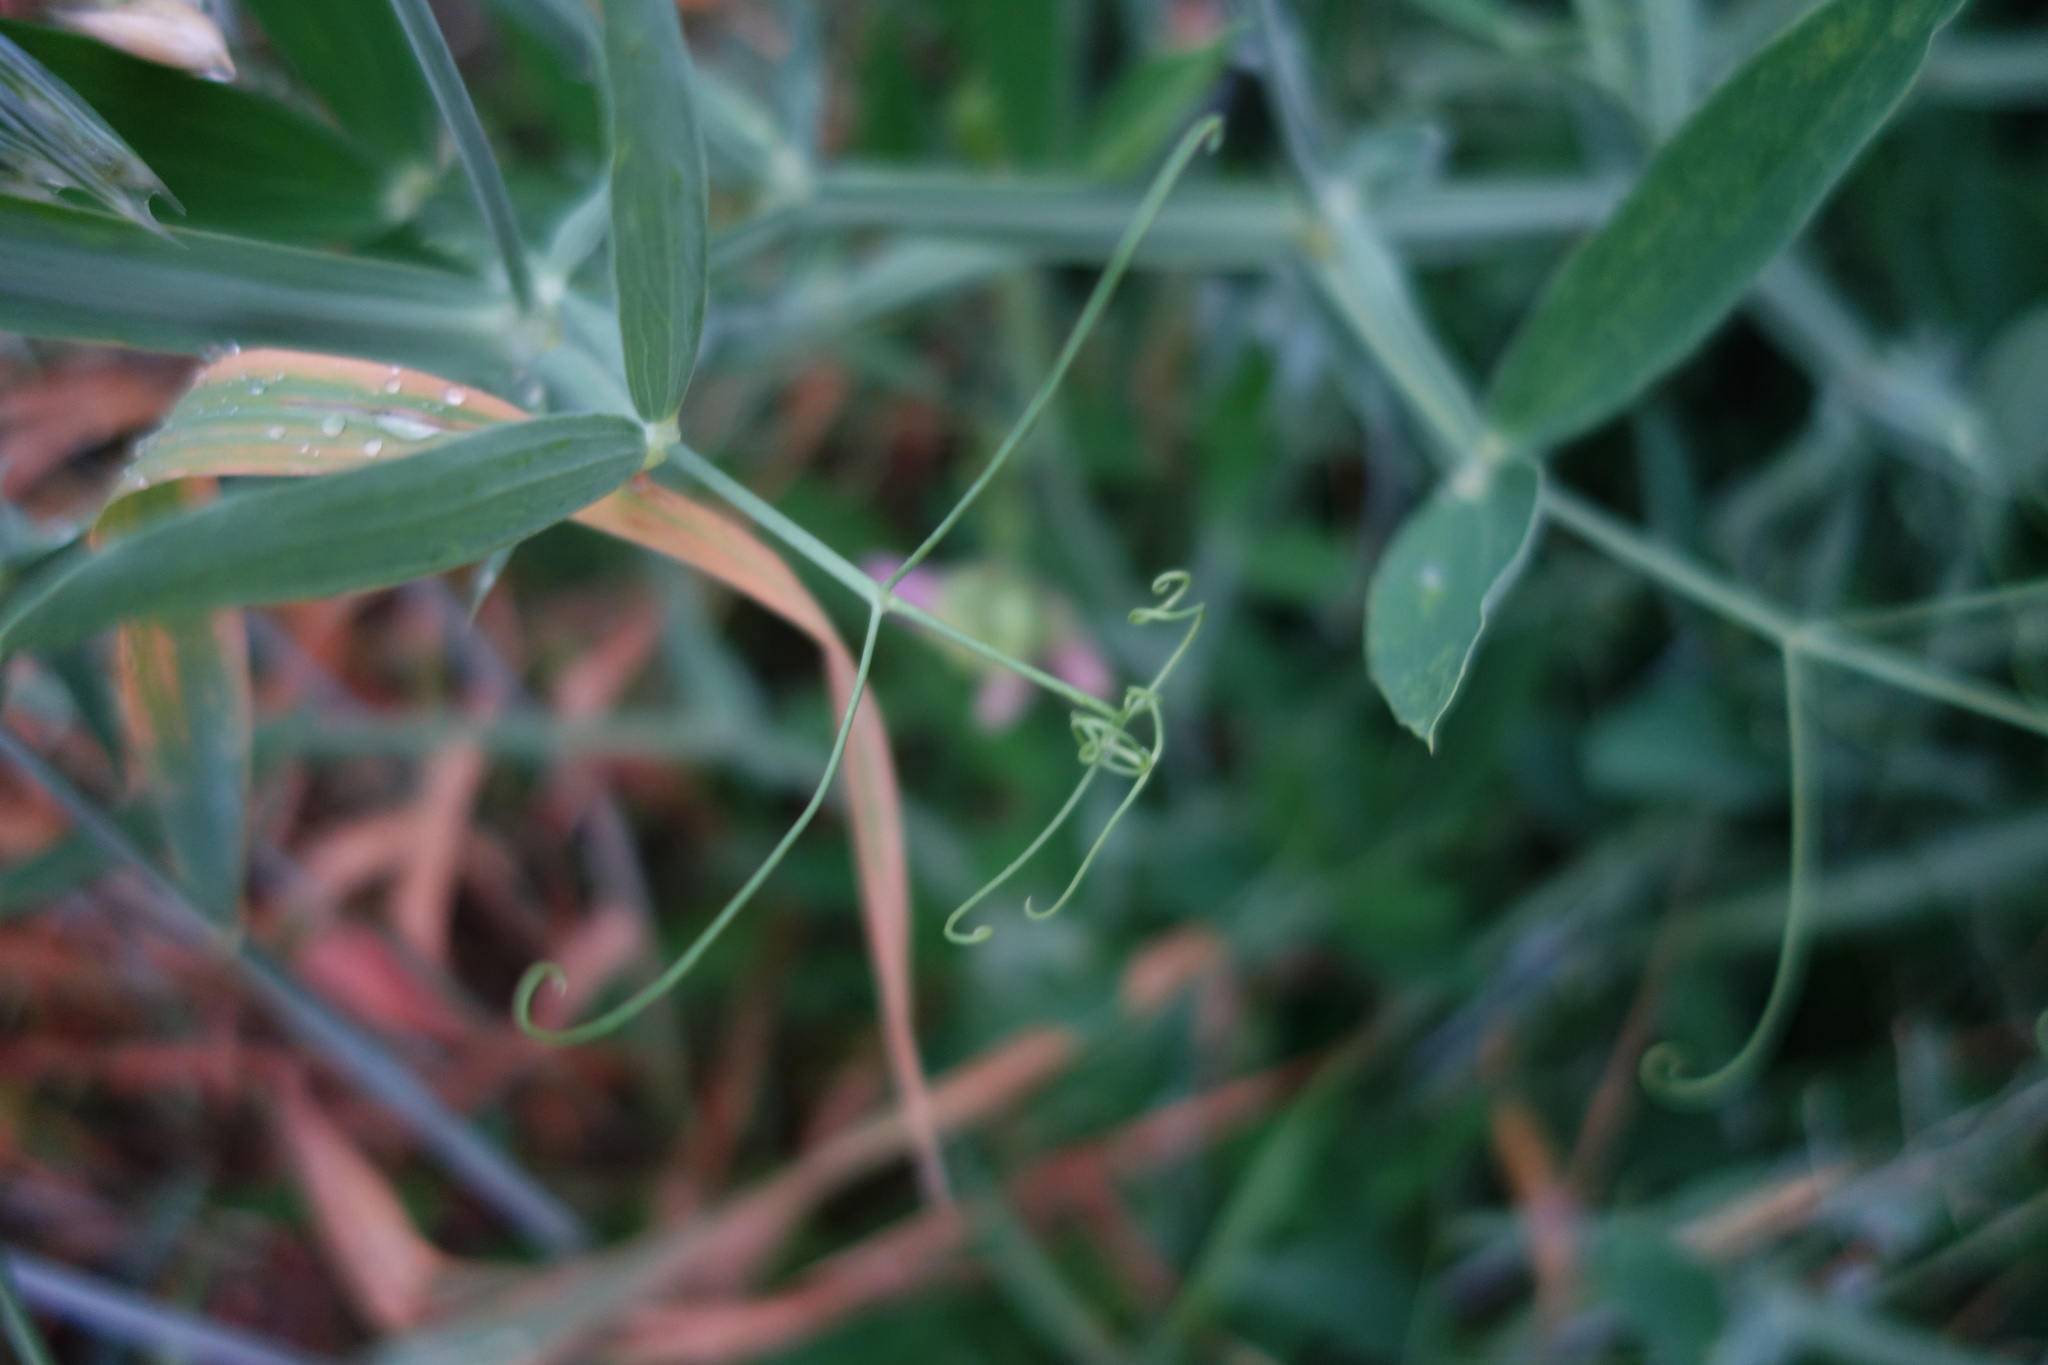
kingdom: Plantae
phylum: Tracheophyta
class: Magnoliopsida
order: Fabales
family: Fabaceae
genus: Lathyrus
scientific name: Lathyrus latifolius
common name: Perennial pea
